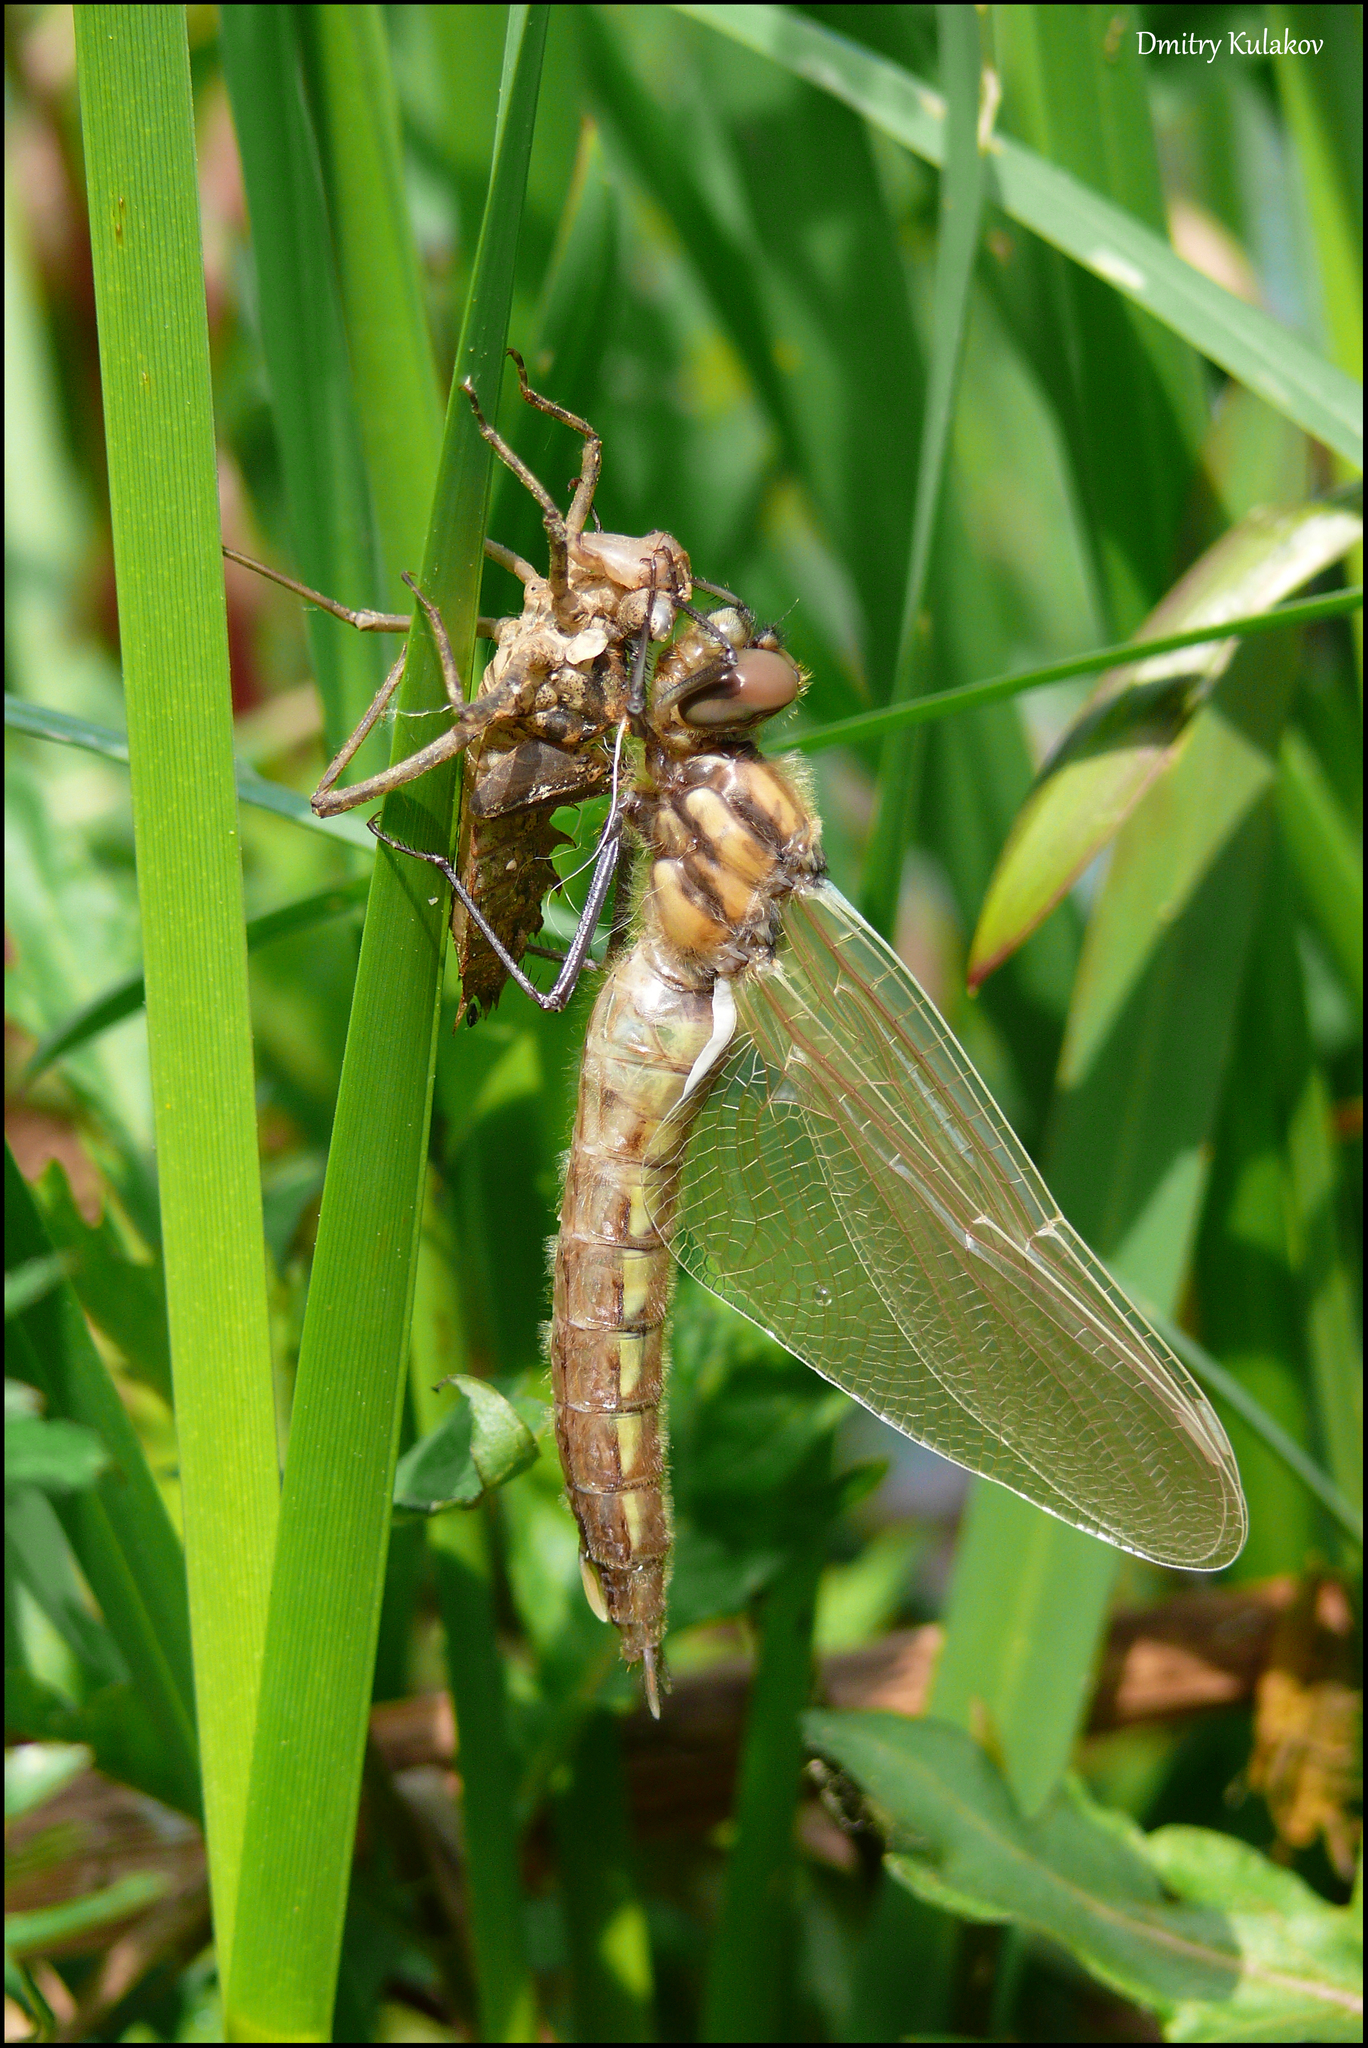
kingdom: Animalia
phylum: Arthropoda
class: Insecta
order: Odonata
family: Corduliidae
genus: Epitheca
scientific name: Epitheca bimaculata
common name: Eurasian baskettail
